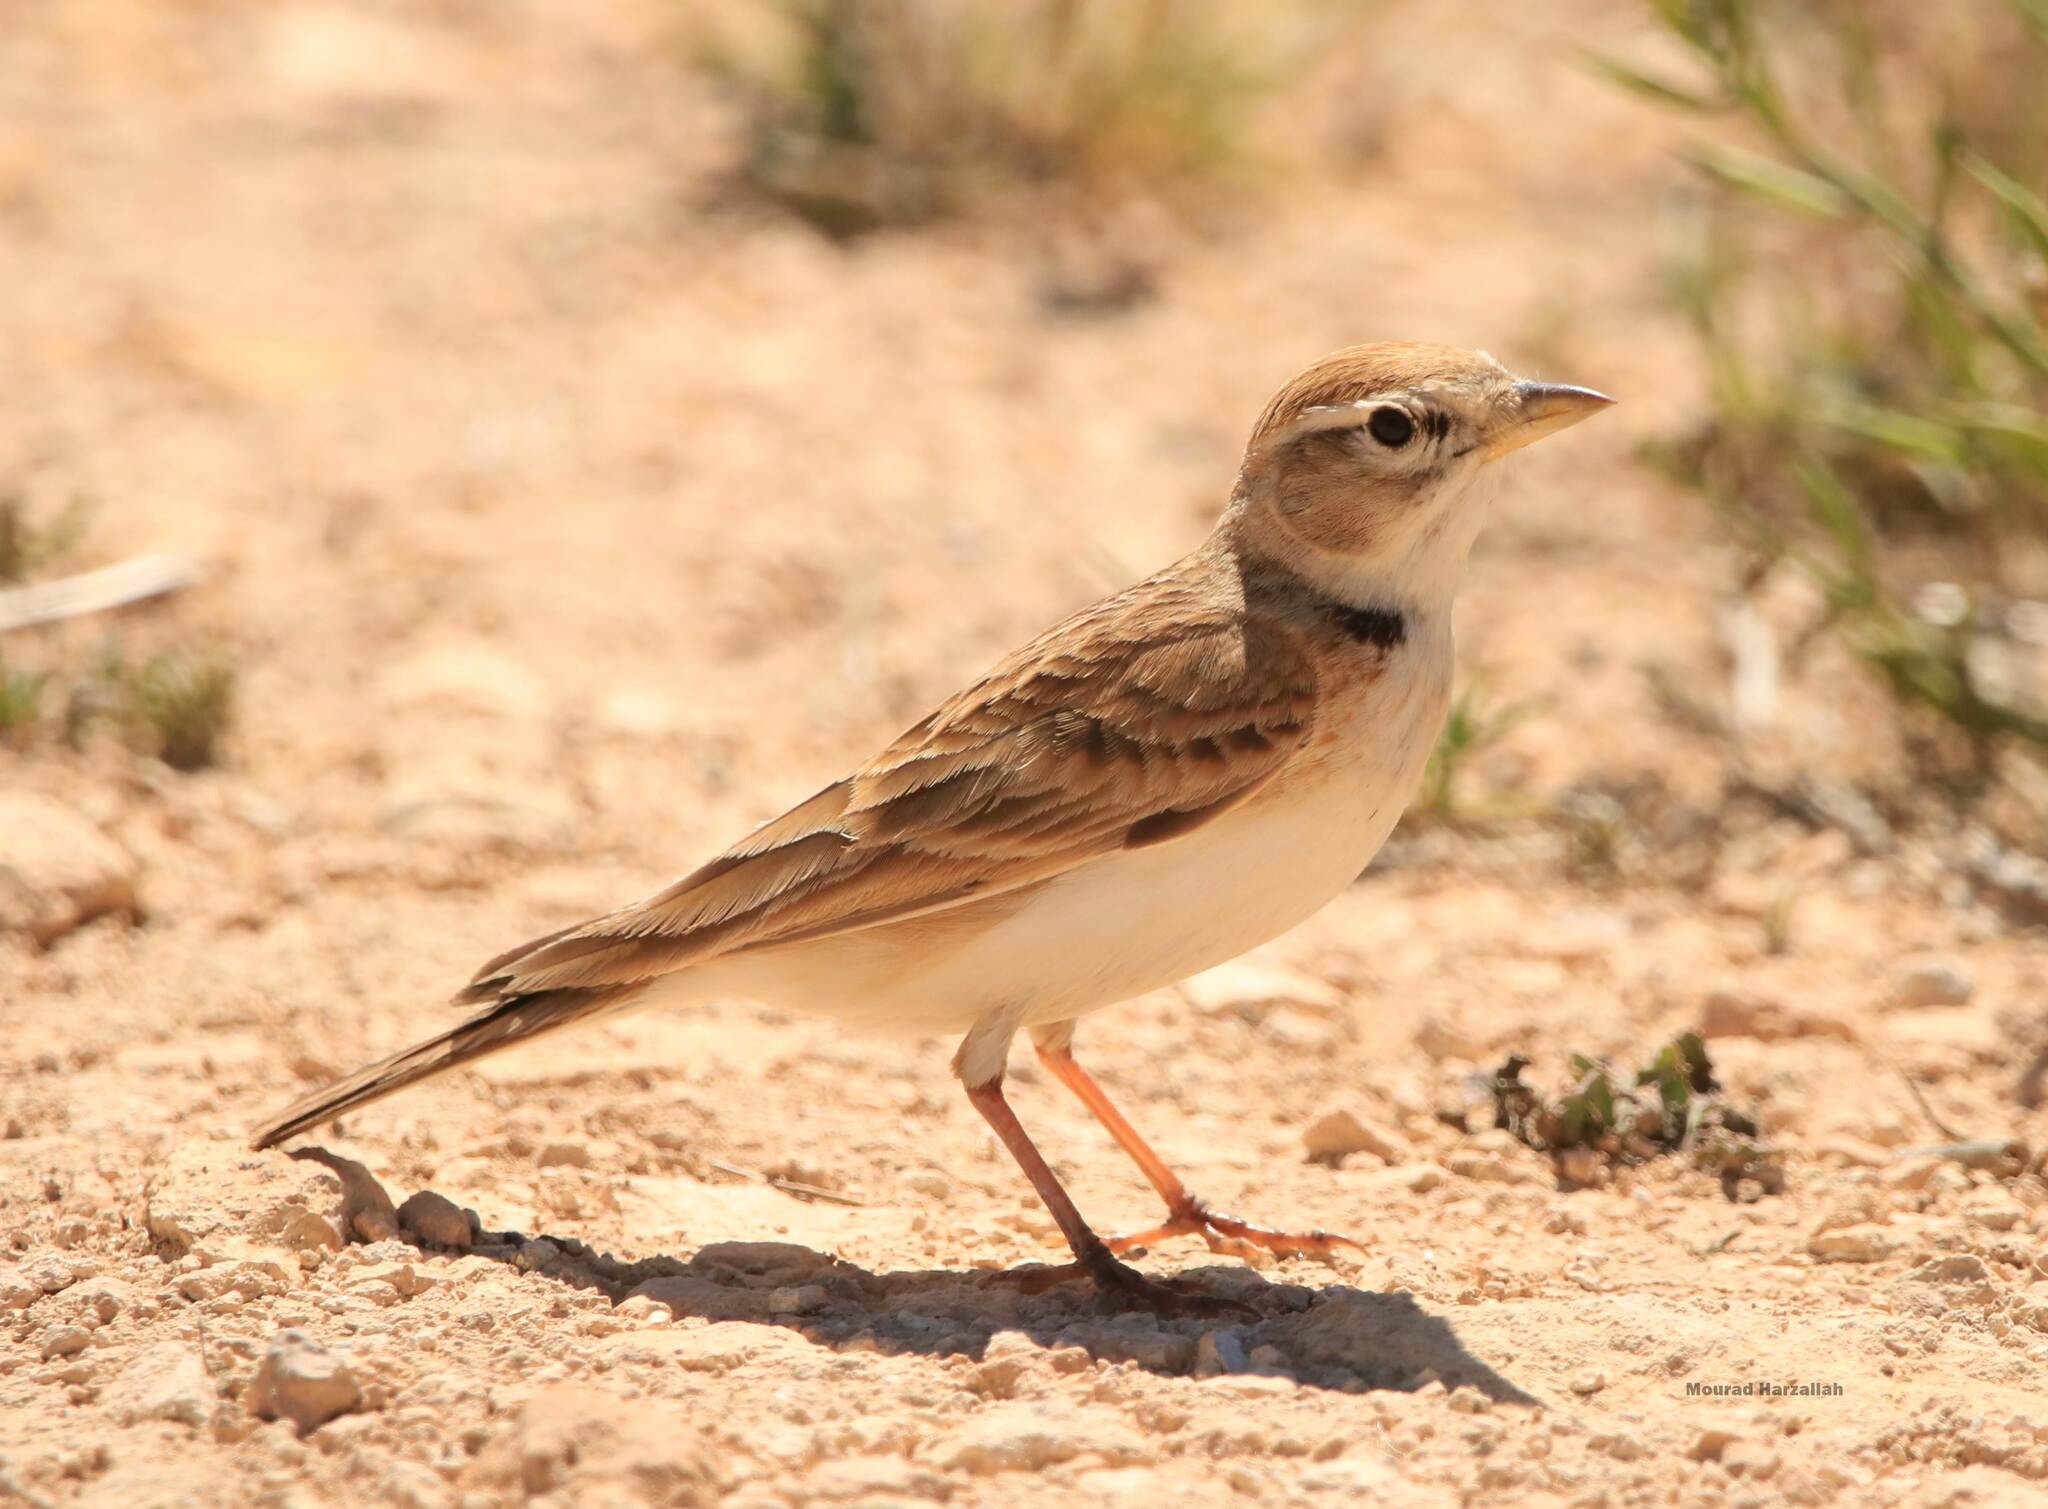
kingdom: Animalia
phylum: Chordata
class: Aves
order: Passeriformes
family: Alaudidae
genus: Calandrella
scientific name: Calandrella brachydactyla
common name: Greater short-toed lark
